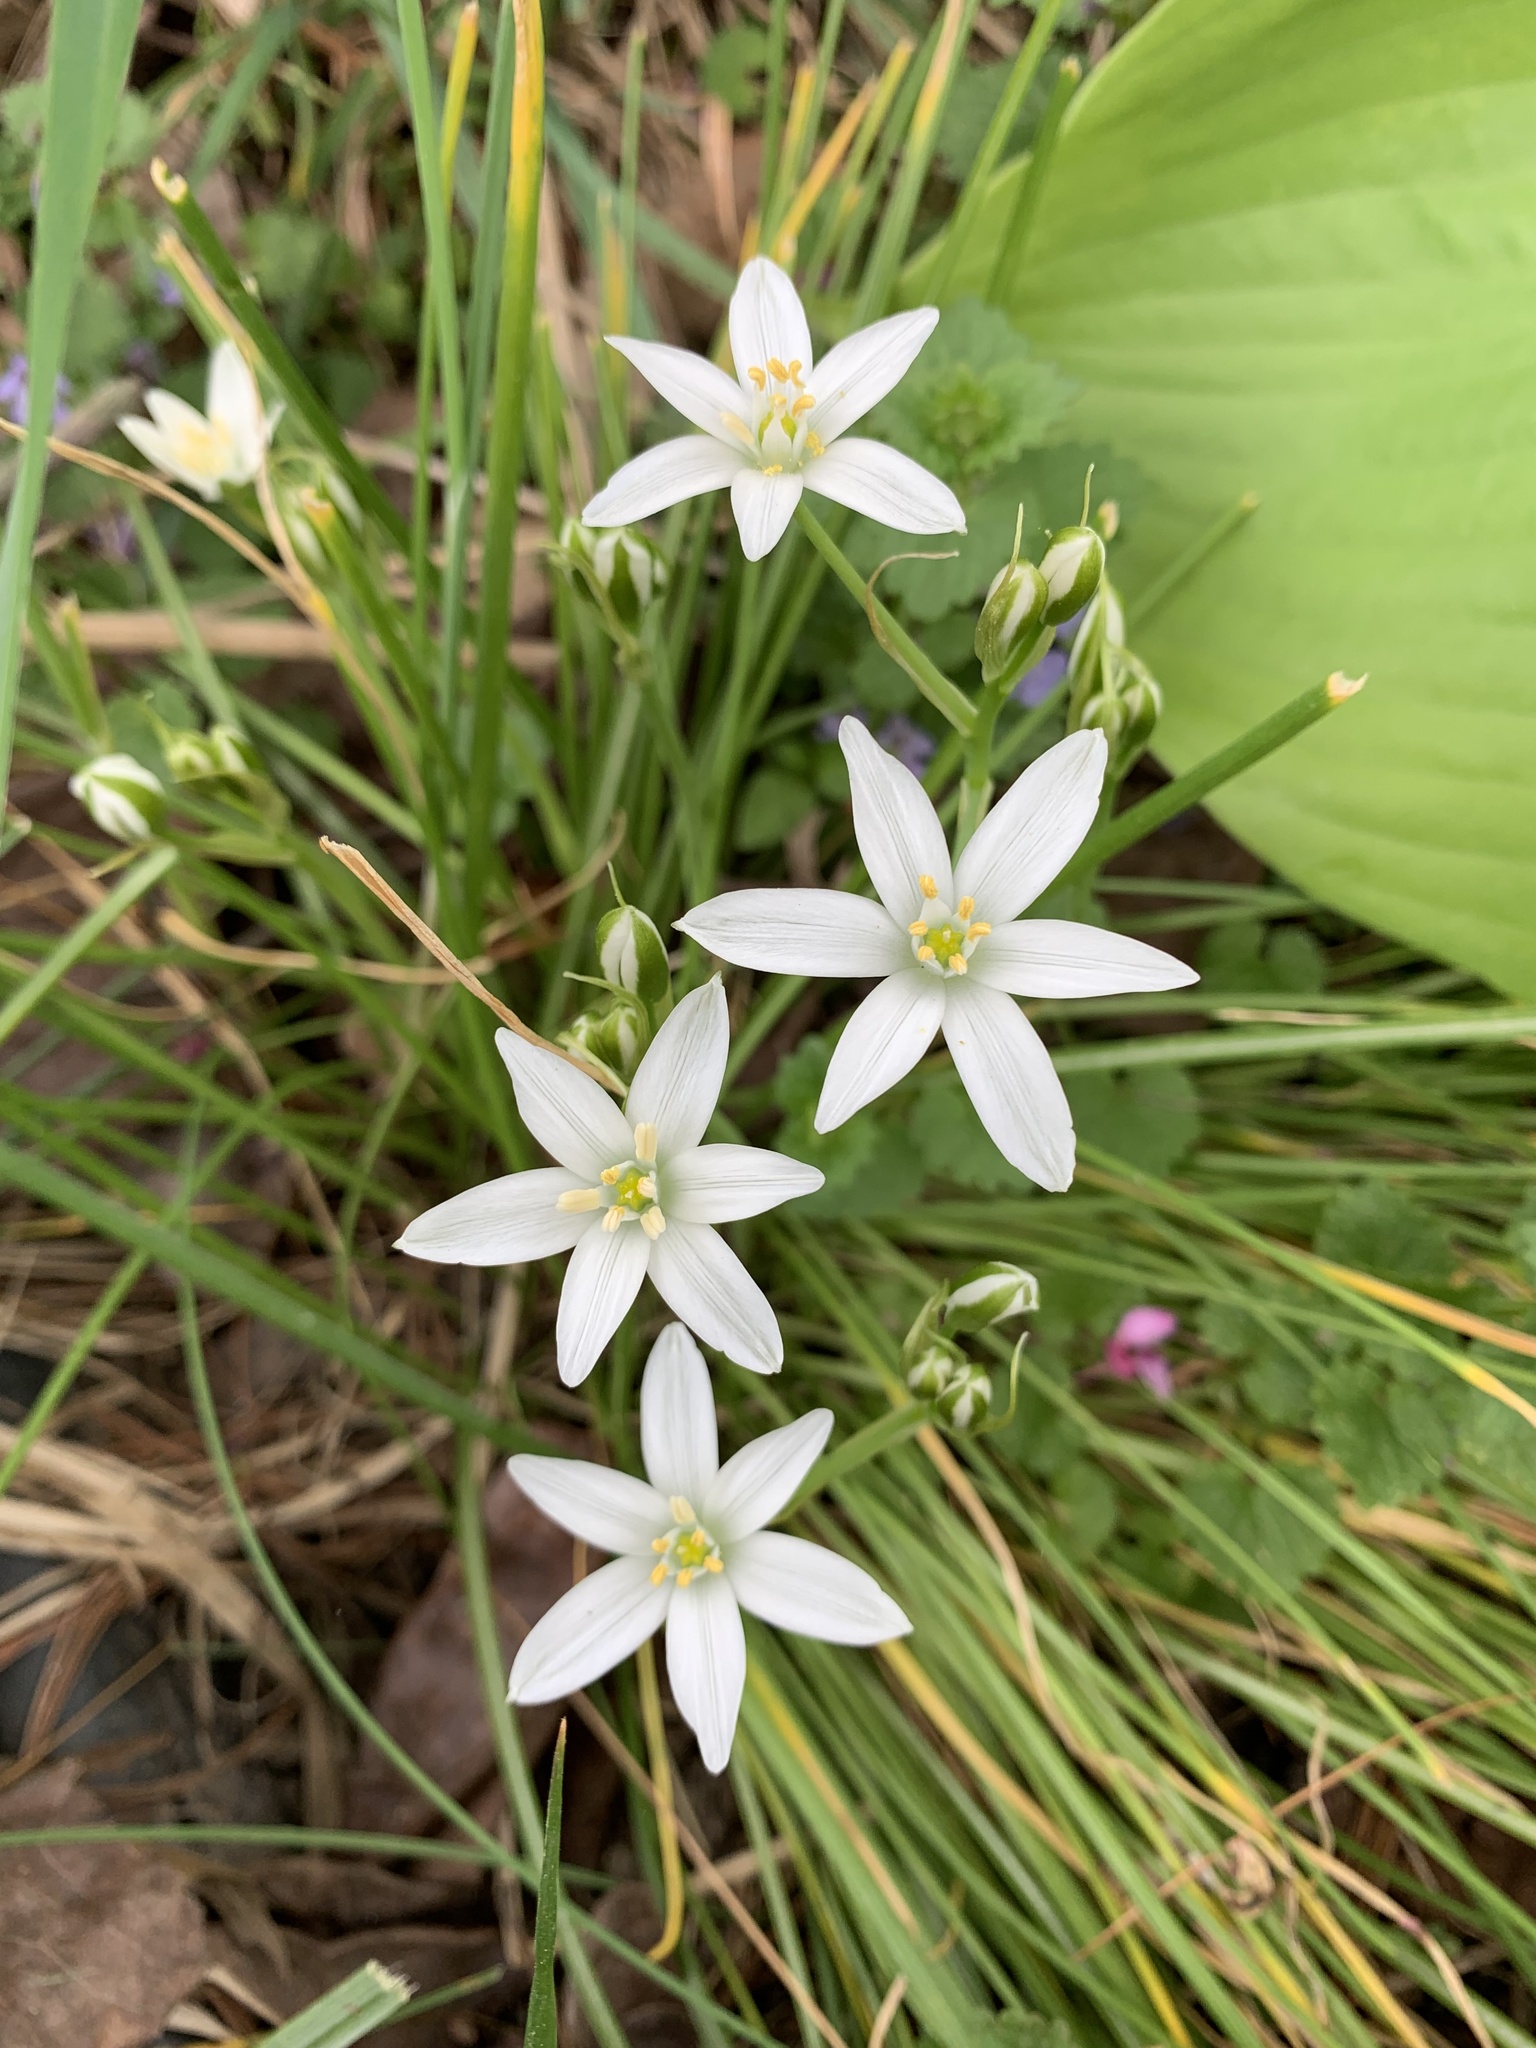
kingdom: Plantae
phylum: Tracheophyta
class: Liliopsida
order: Asparagales
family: Asparagaceae
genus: Ornithogalum
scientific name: Ornithogalum umbellatum
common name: Garden star-of-bethlehem
